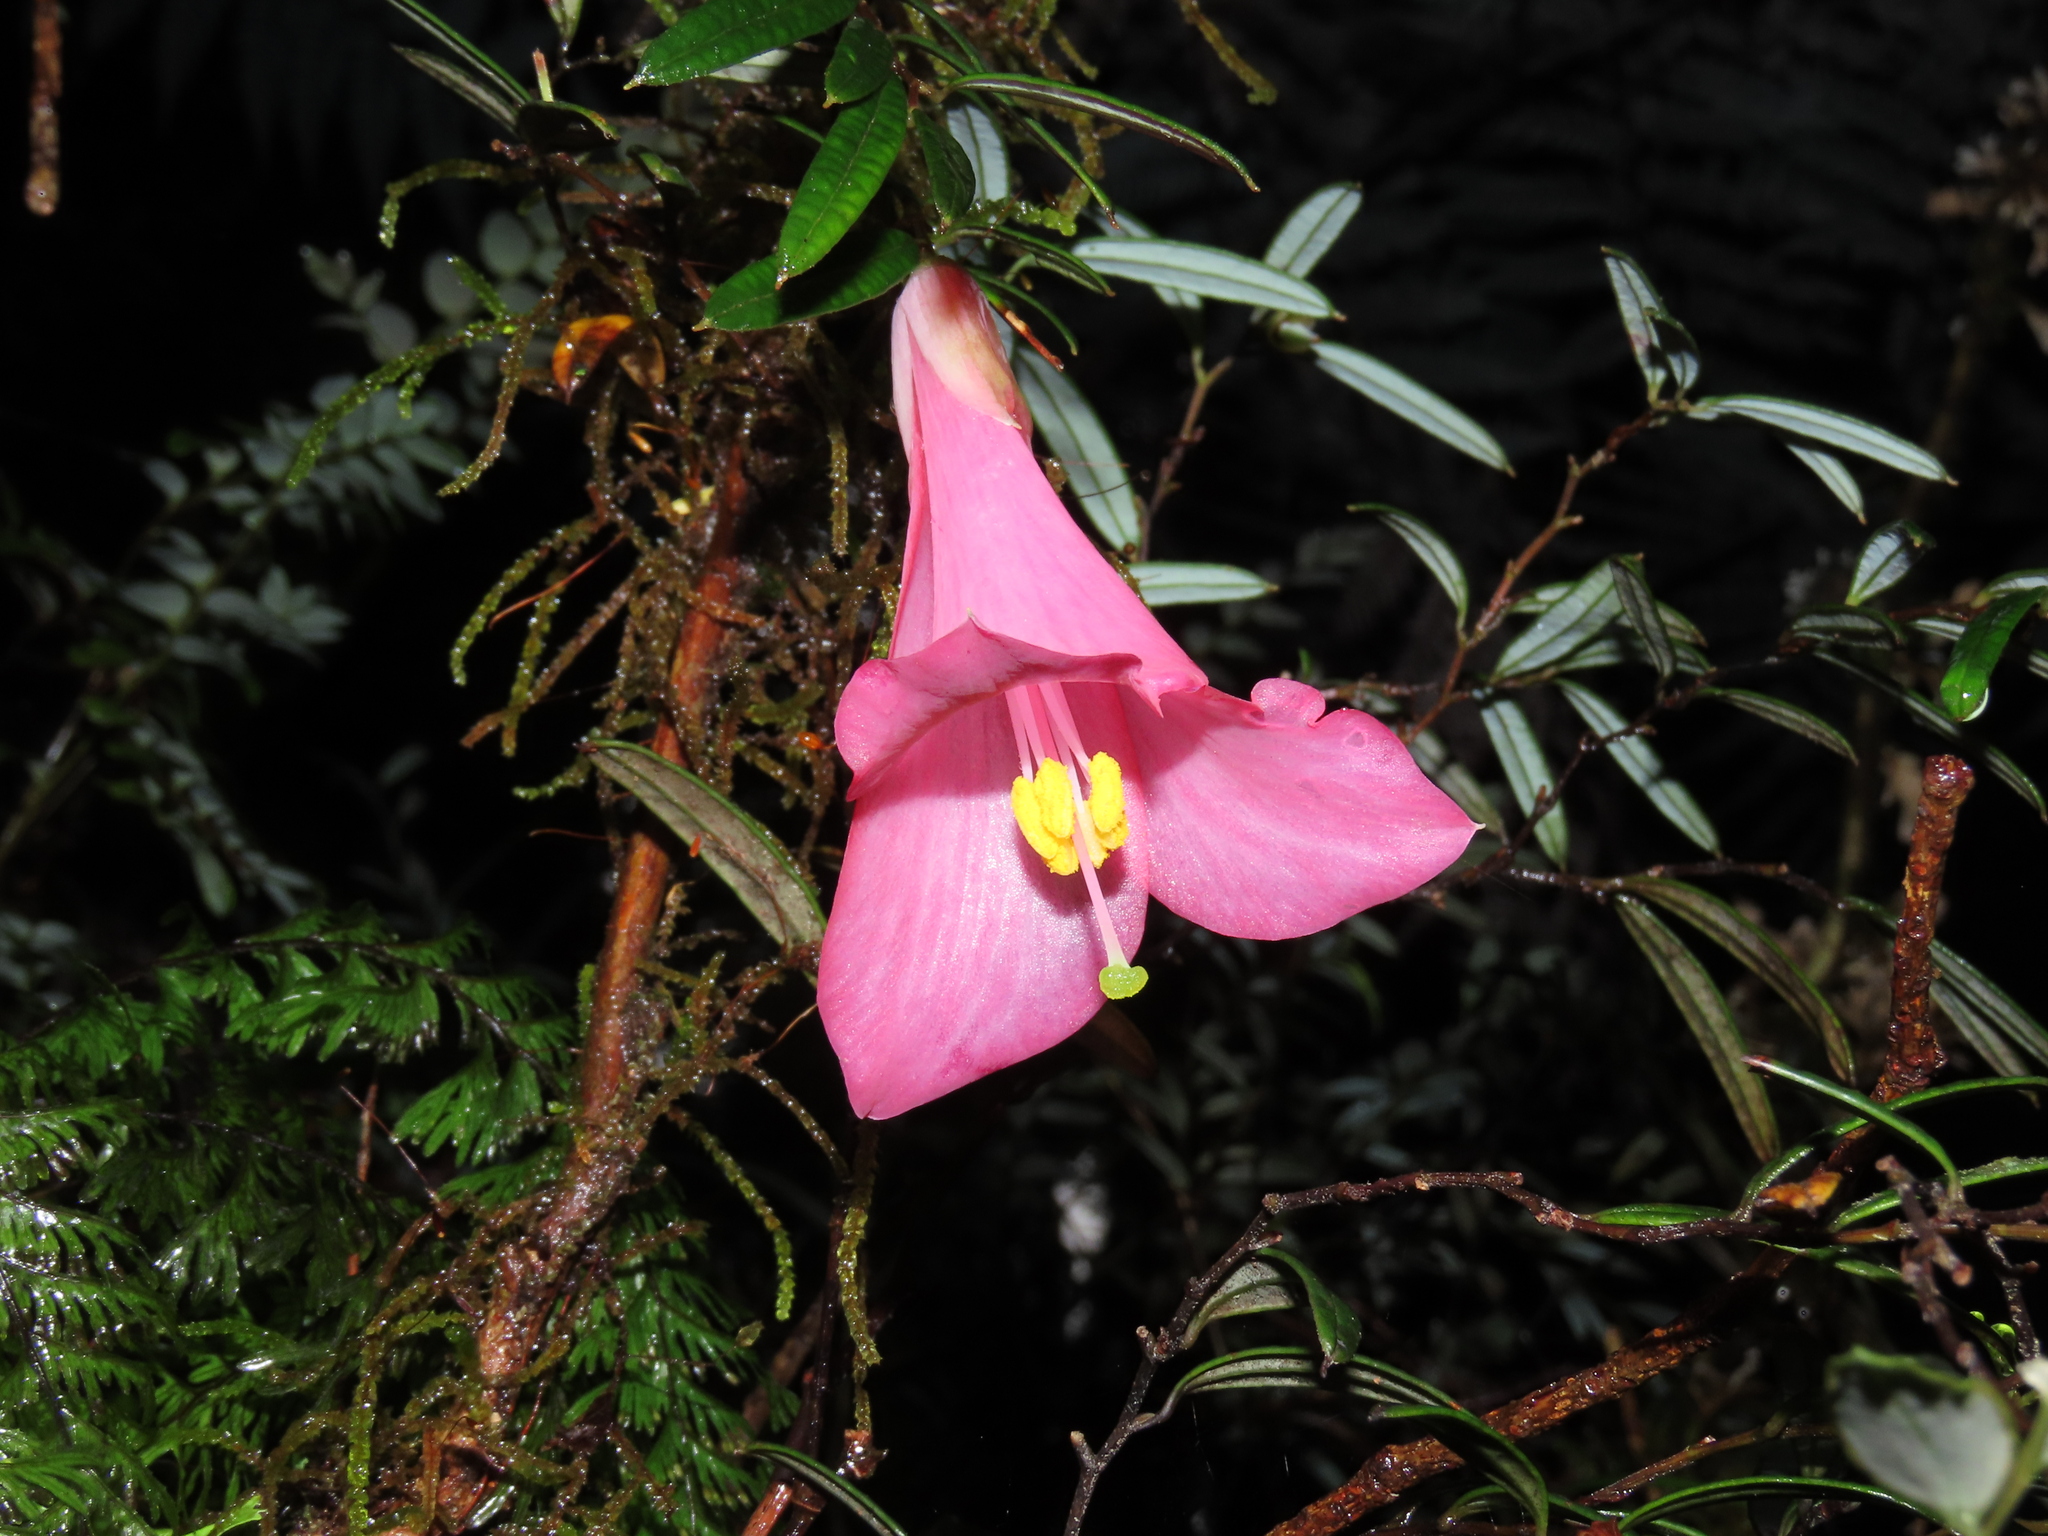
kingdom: Plantae
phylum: Tracheophyta
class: Liliopsida
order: Liliales
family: Philesiaceae
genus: Philesia
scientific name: Philesia magellanica
